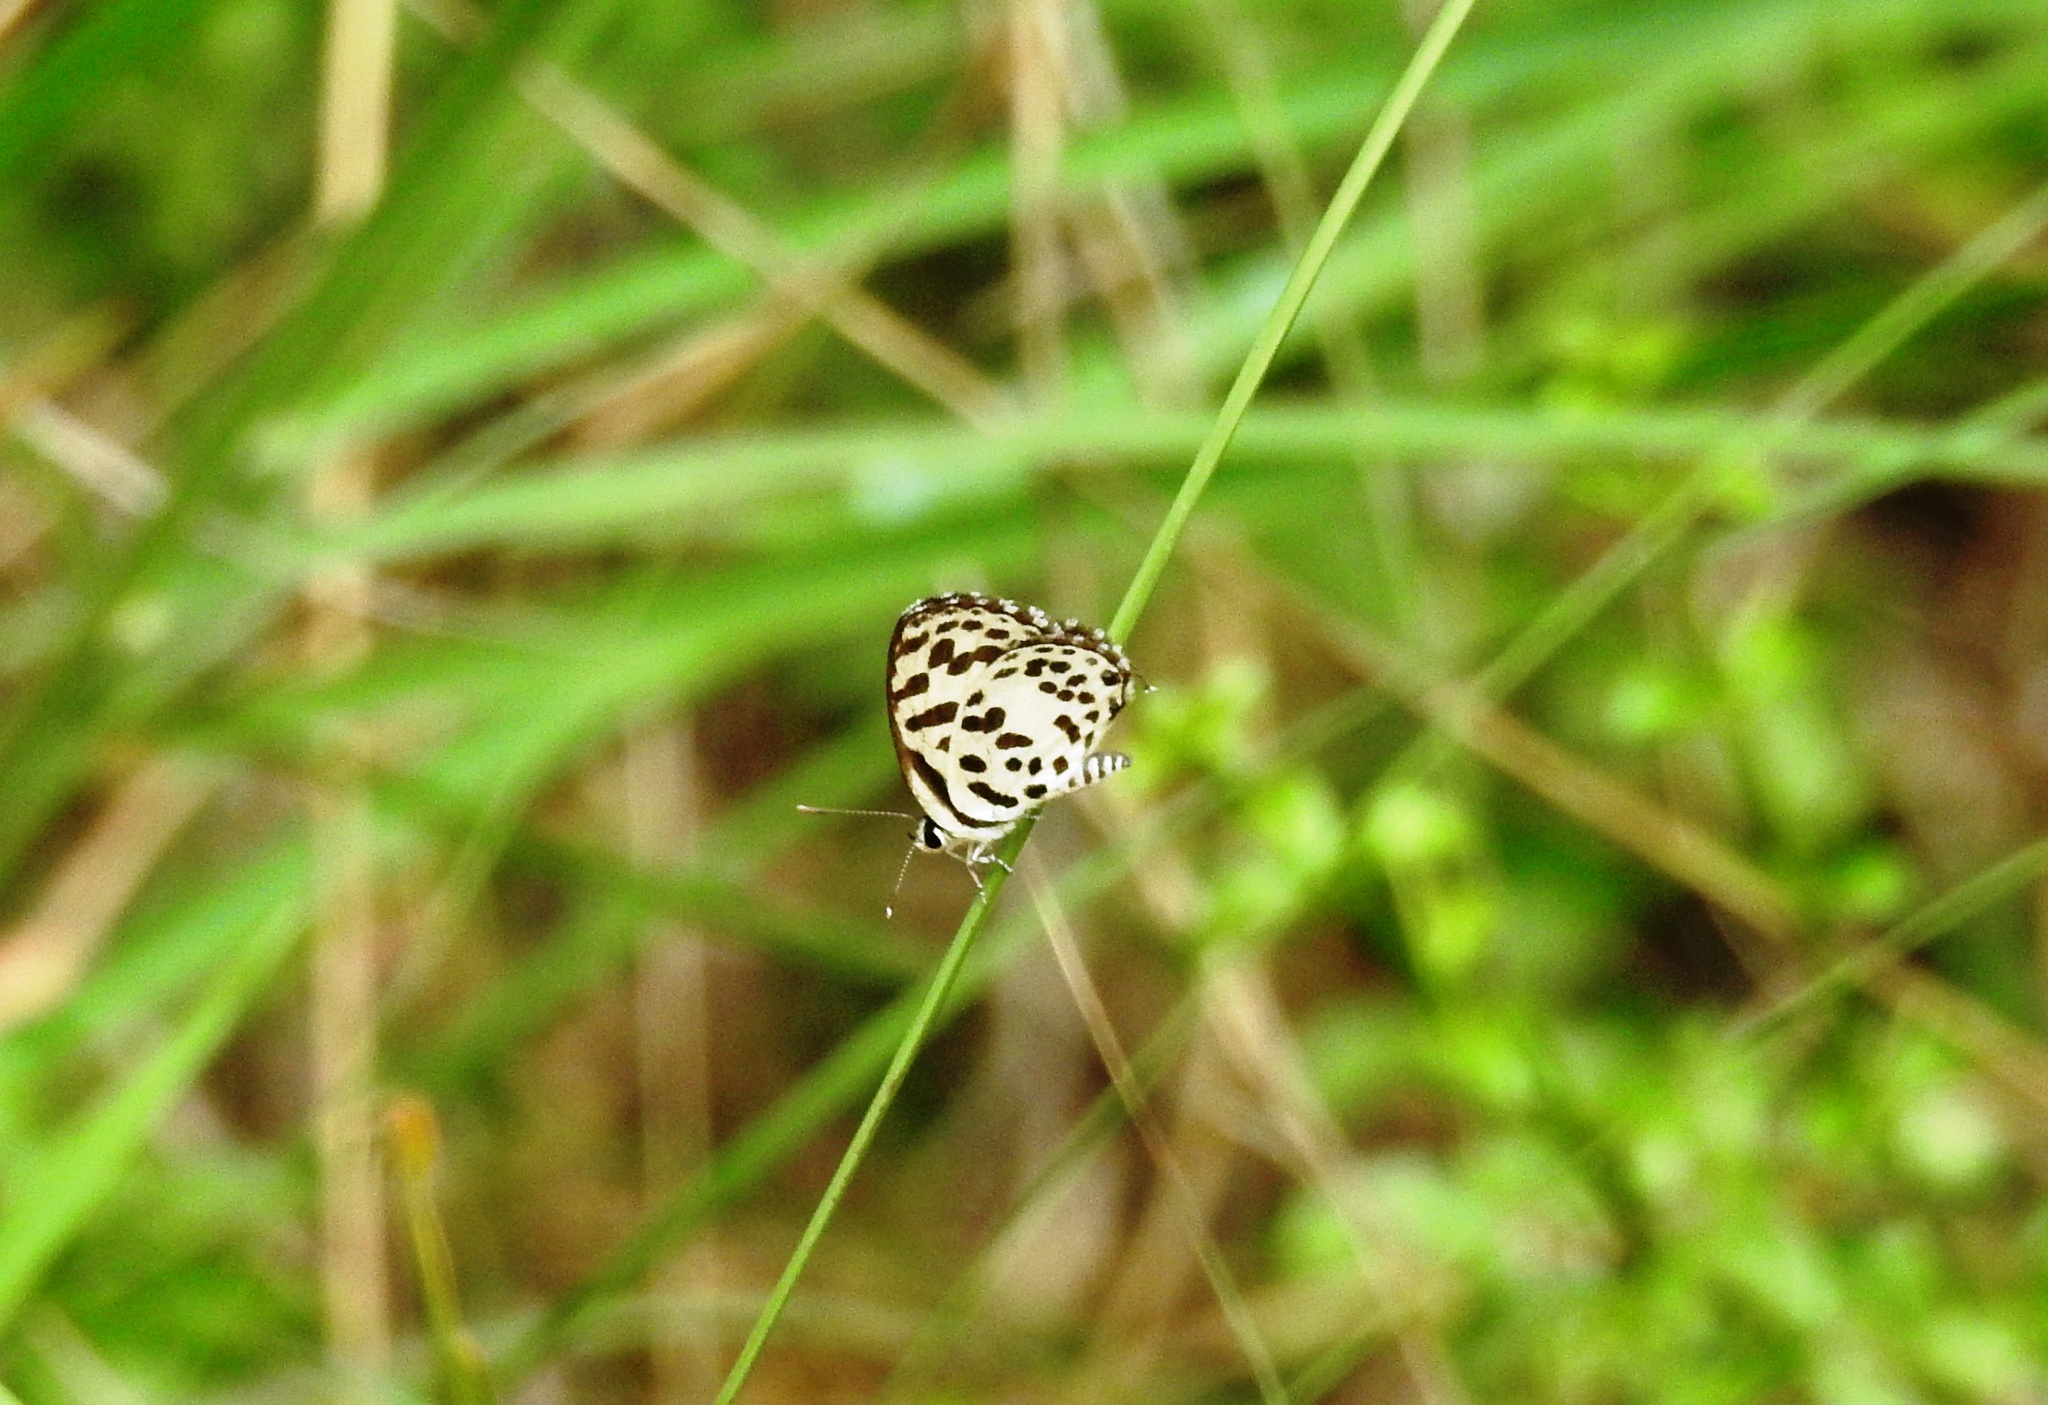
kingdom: Animalia
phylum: Arthropoda
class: Insecta
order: Lepidoptera
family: Lycaenidae
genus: Castalius
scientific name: Castalius rosimon
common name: Common pierrot
